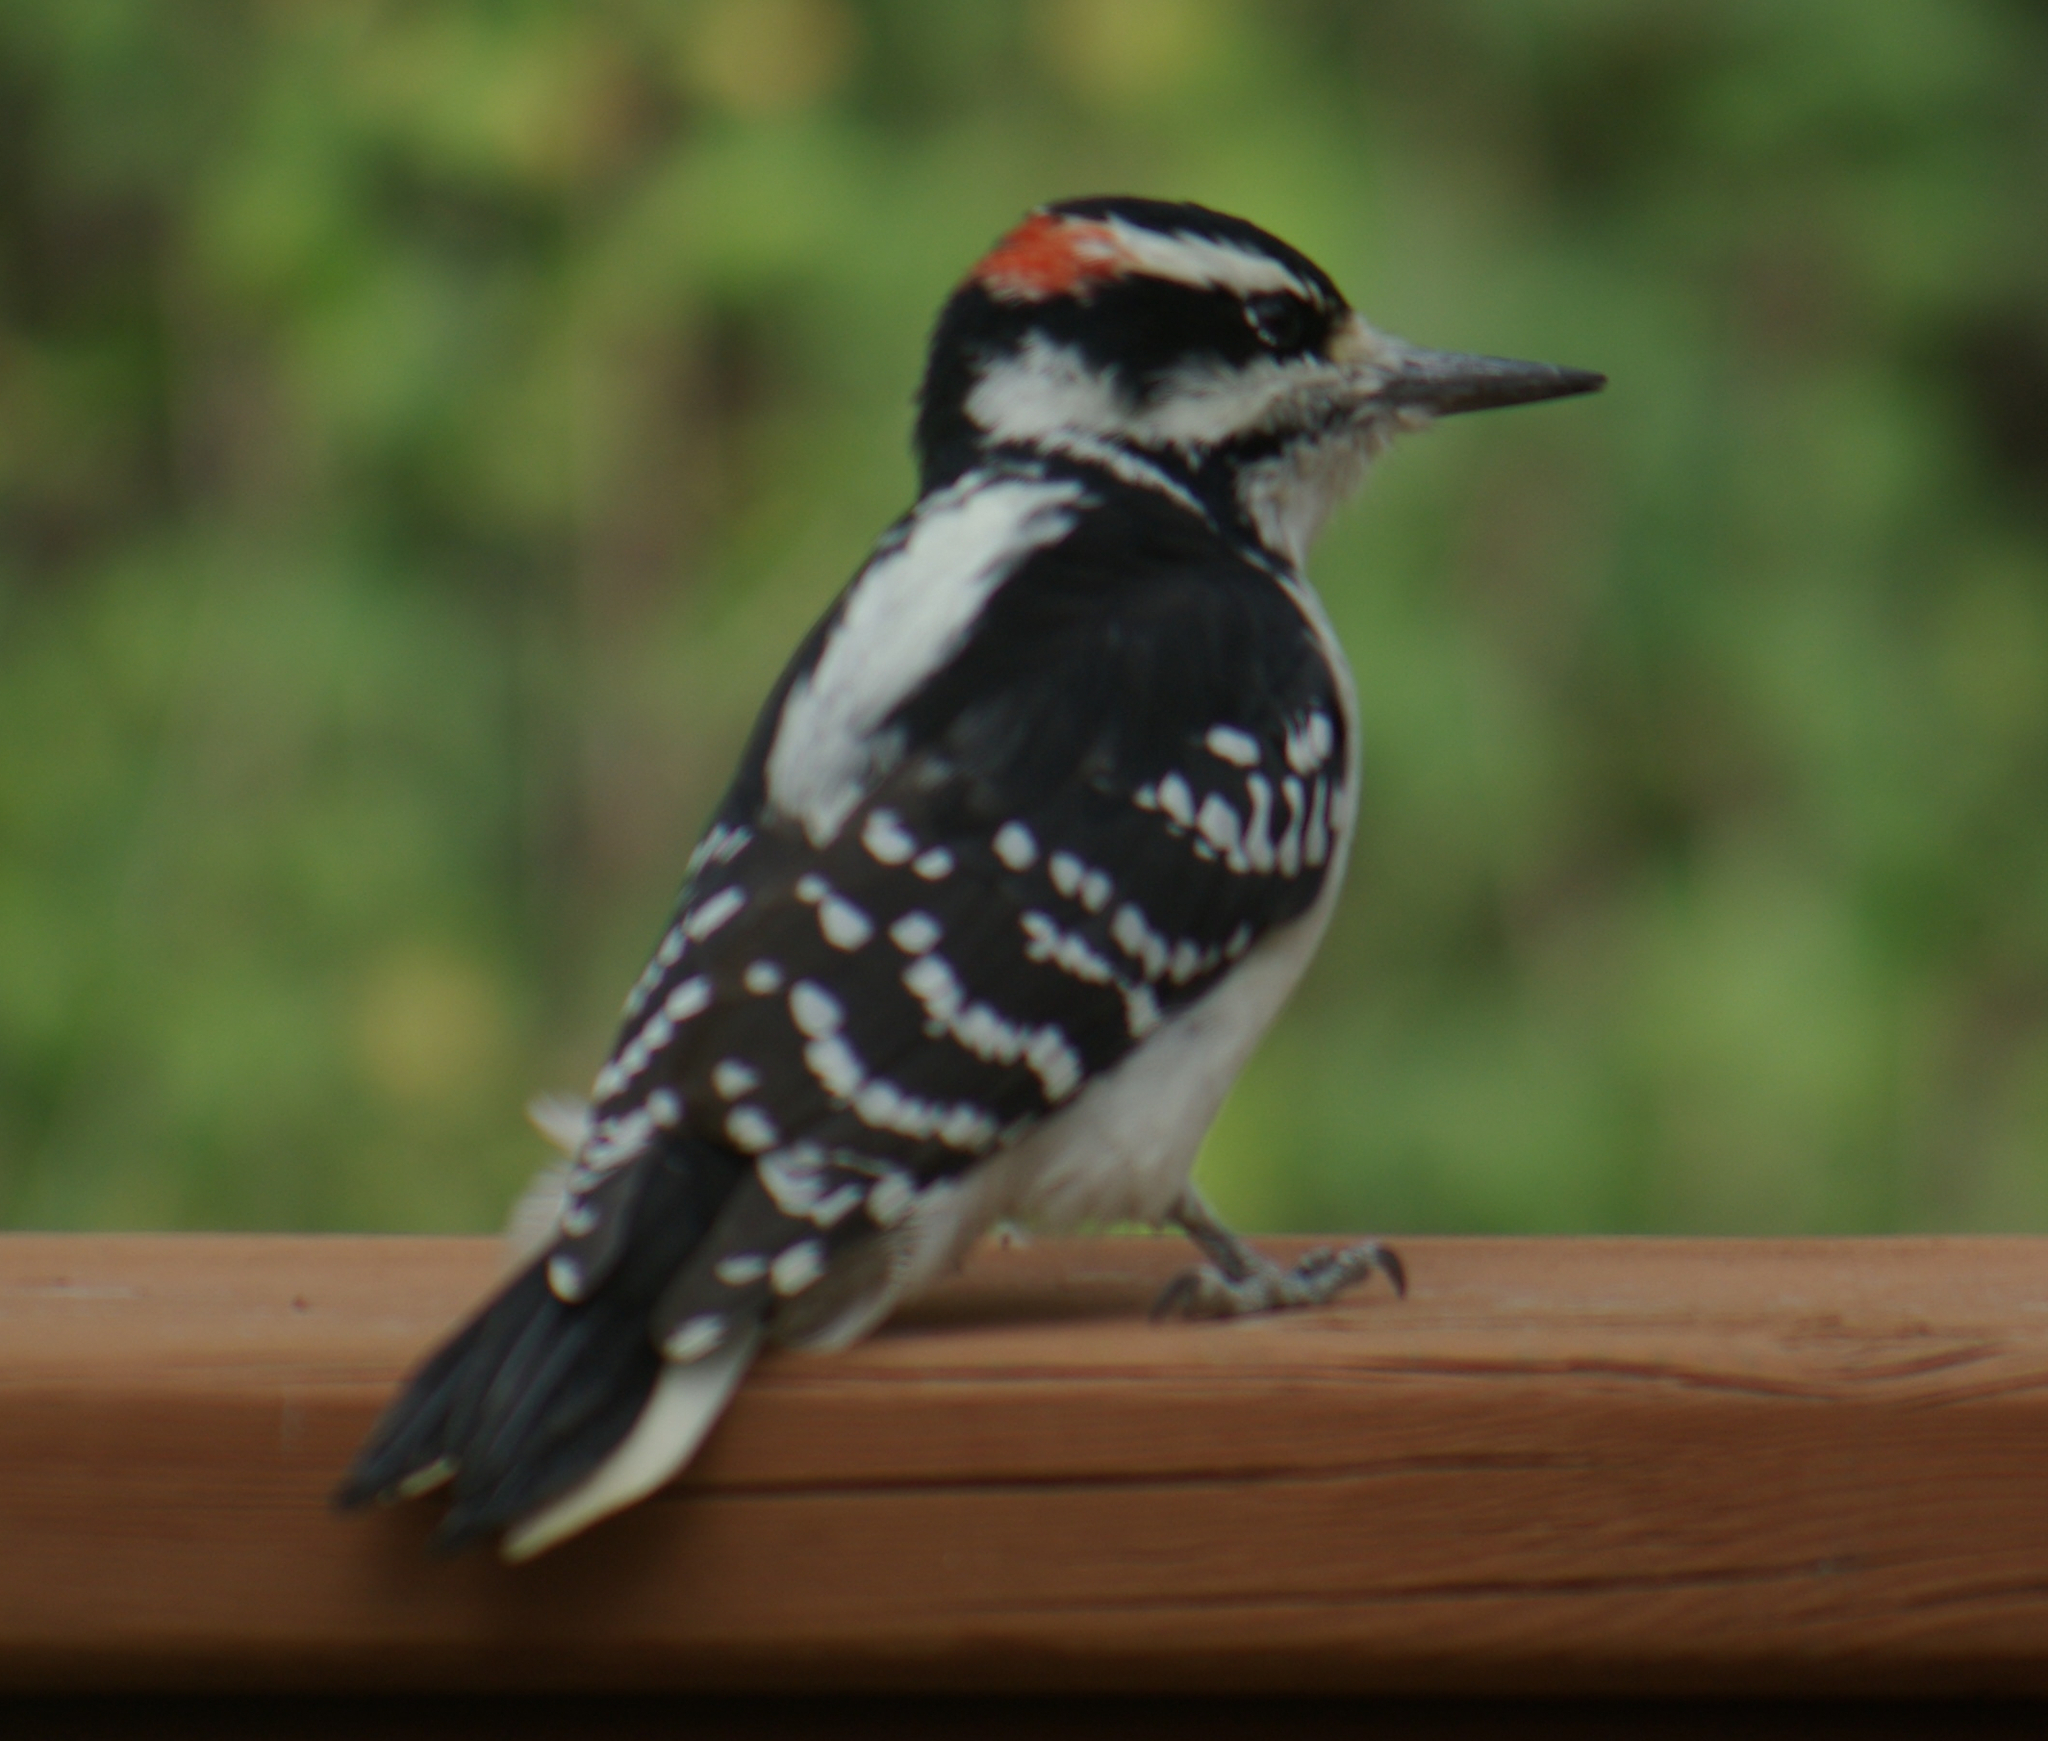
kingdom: Animalia
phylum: Chordata
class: Aves
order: Piciformes
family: Picidae
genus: Leuconotopicus
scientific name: Leuconotopicus villosus
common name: Hairy woodpecker
